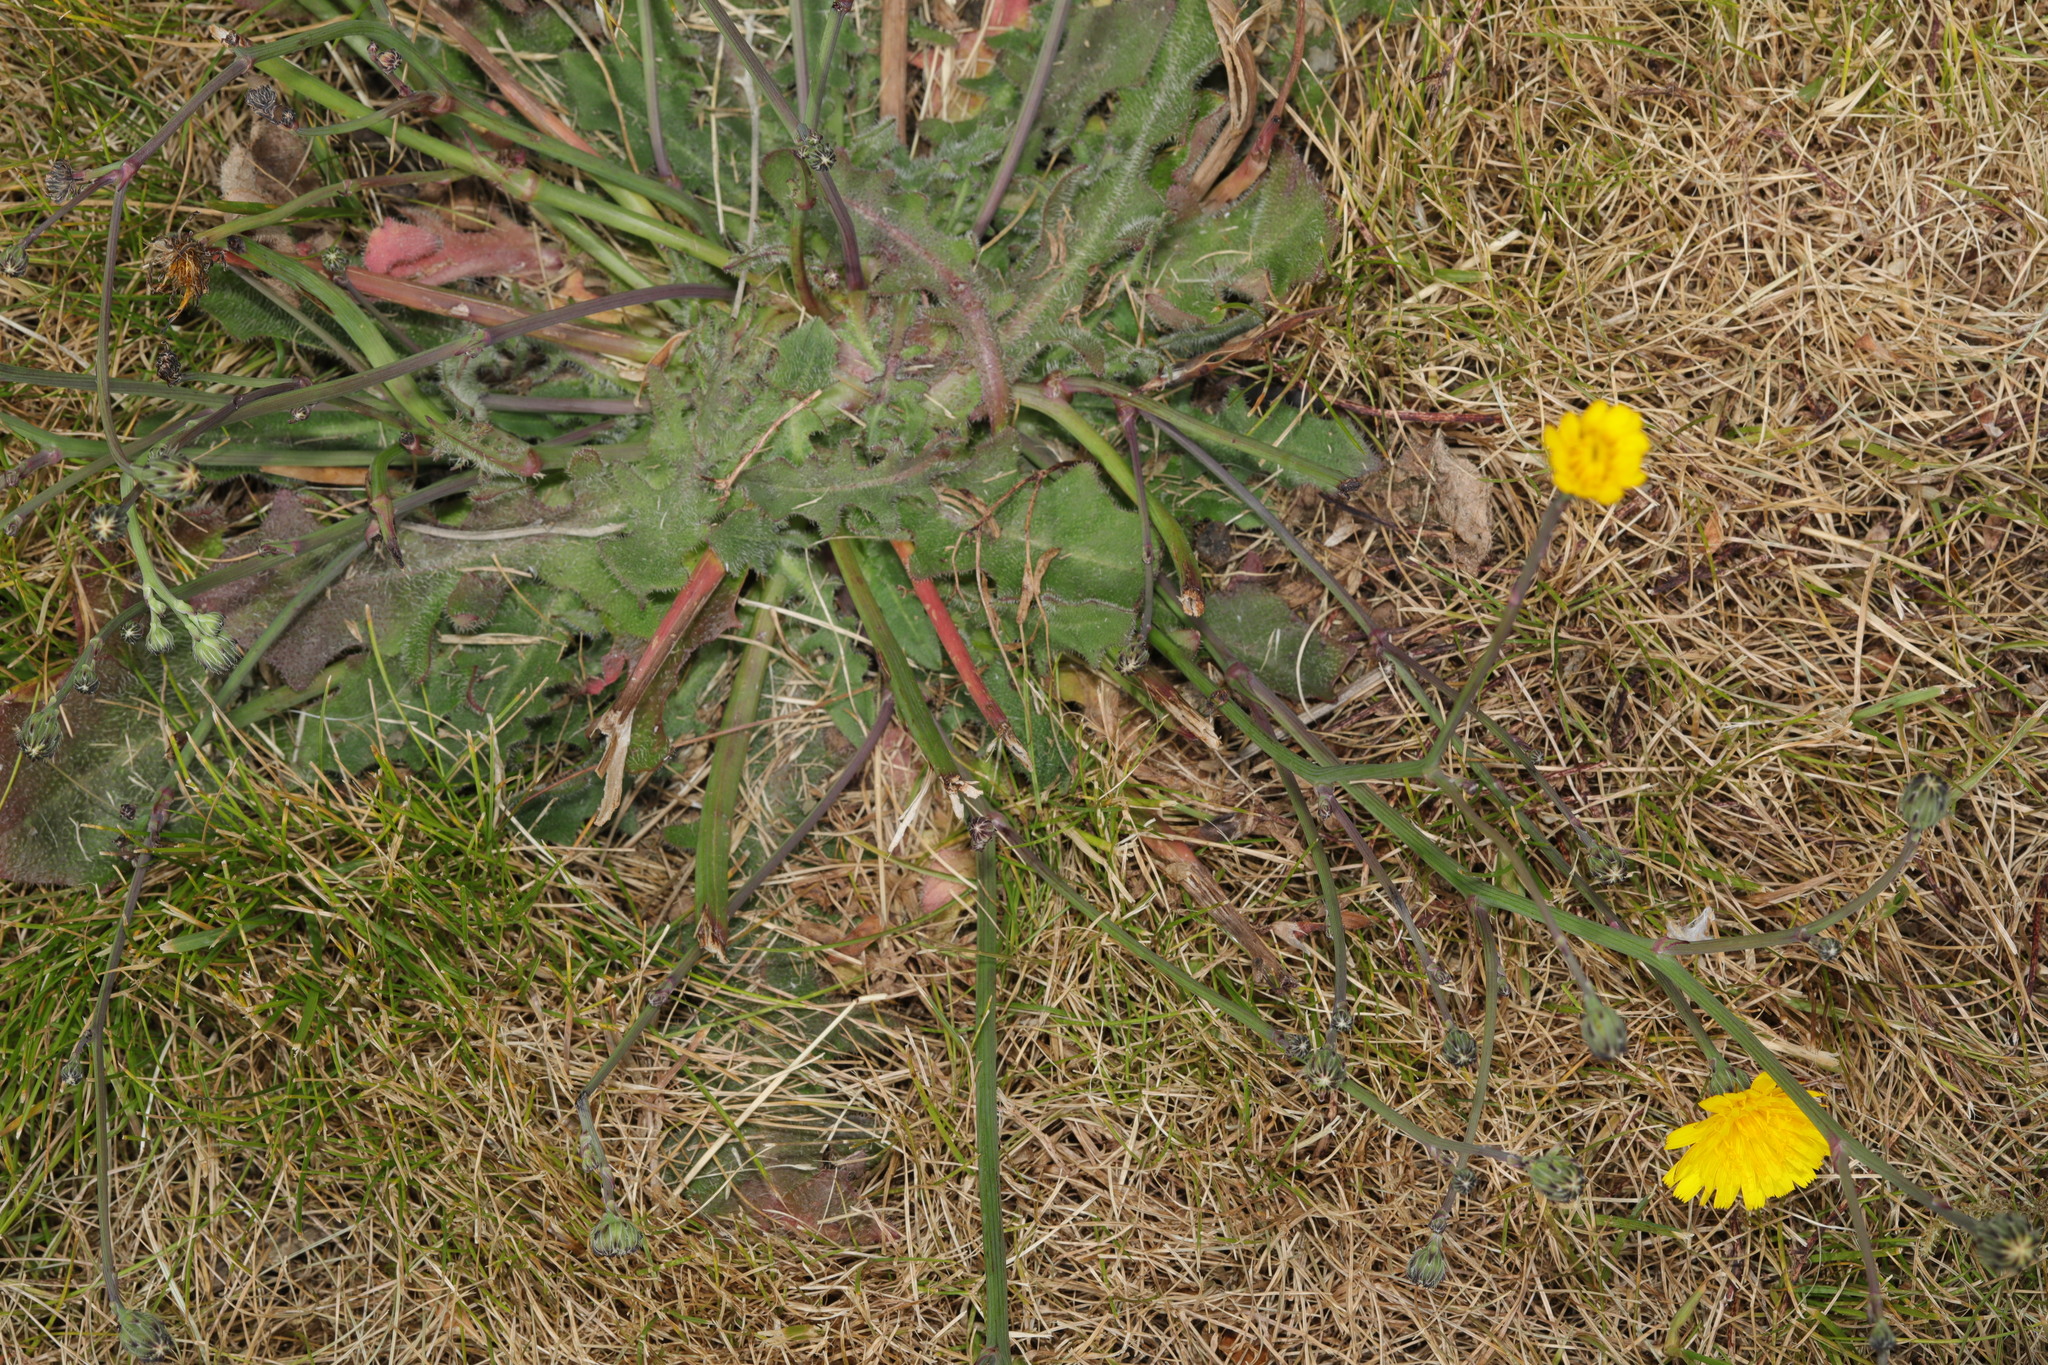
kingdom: Plantae
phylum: Tracheophyta
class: Magnoliopsida
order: Asterales
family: Asteraceae
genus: Hypochaeris
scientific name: Hypochaeris radicata
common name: Flatweed
